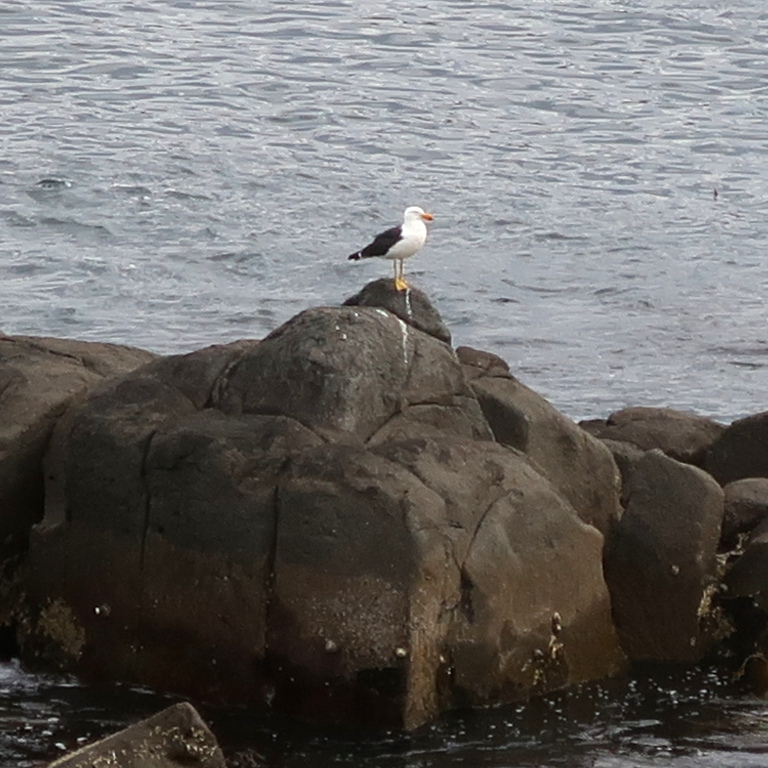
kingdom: Animalia
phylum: Chordata
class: Aves
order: Charadriiformes
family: Laridae
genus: Larus
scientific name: Larus pacificus
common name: Pacific gull
